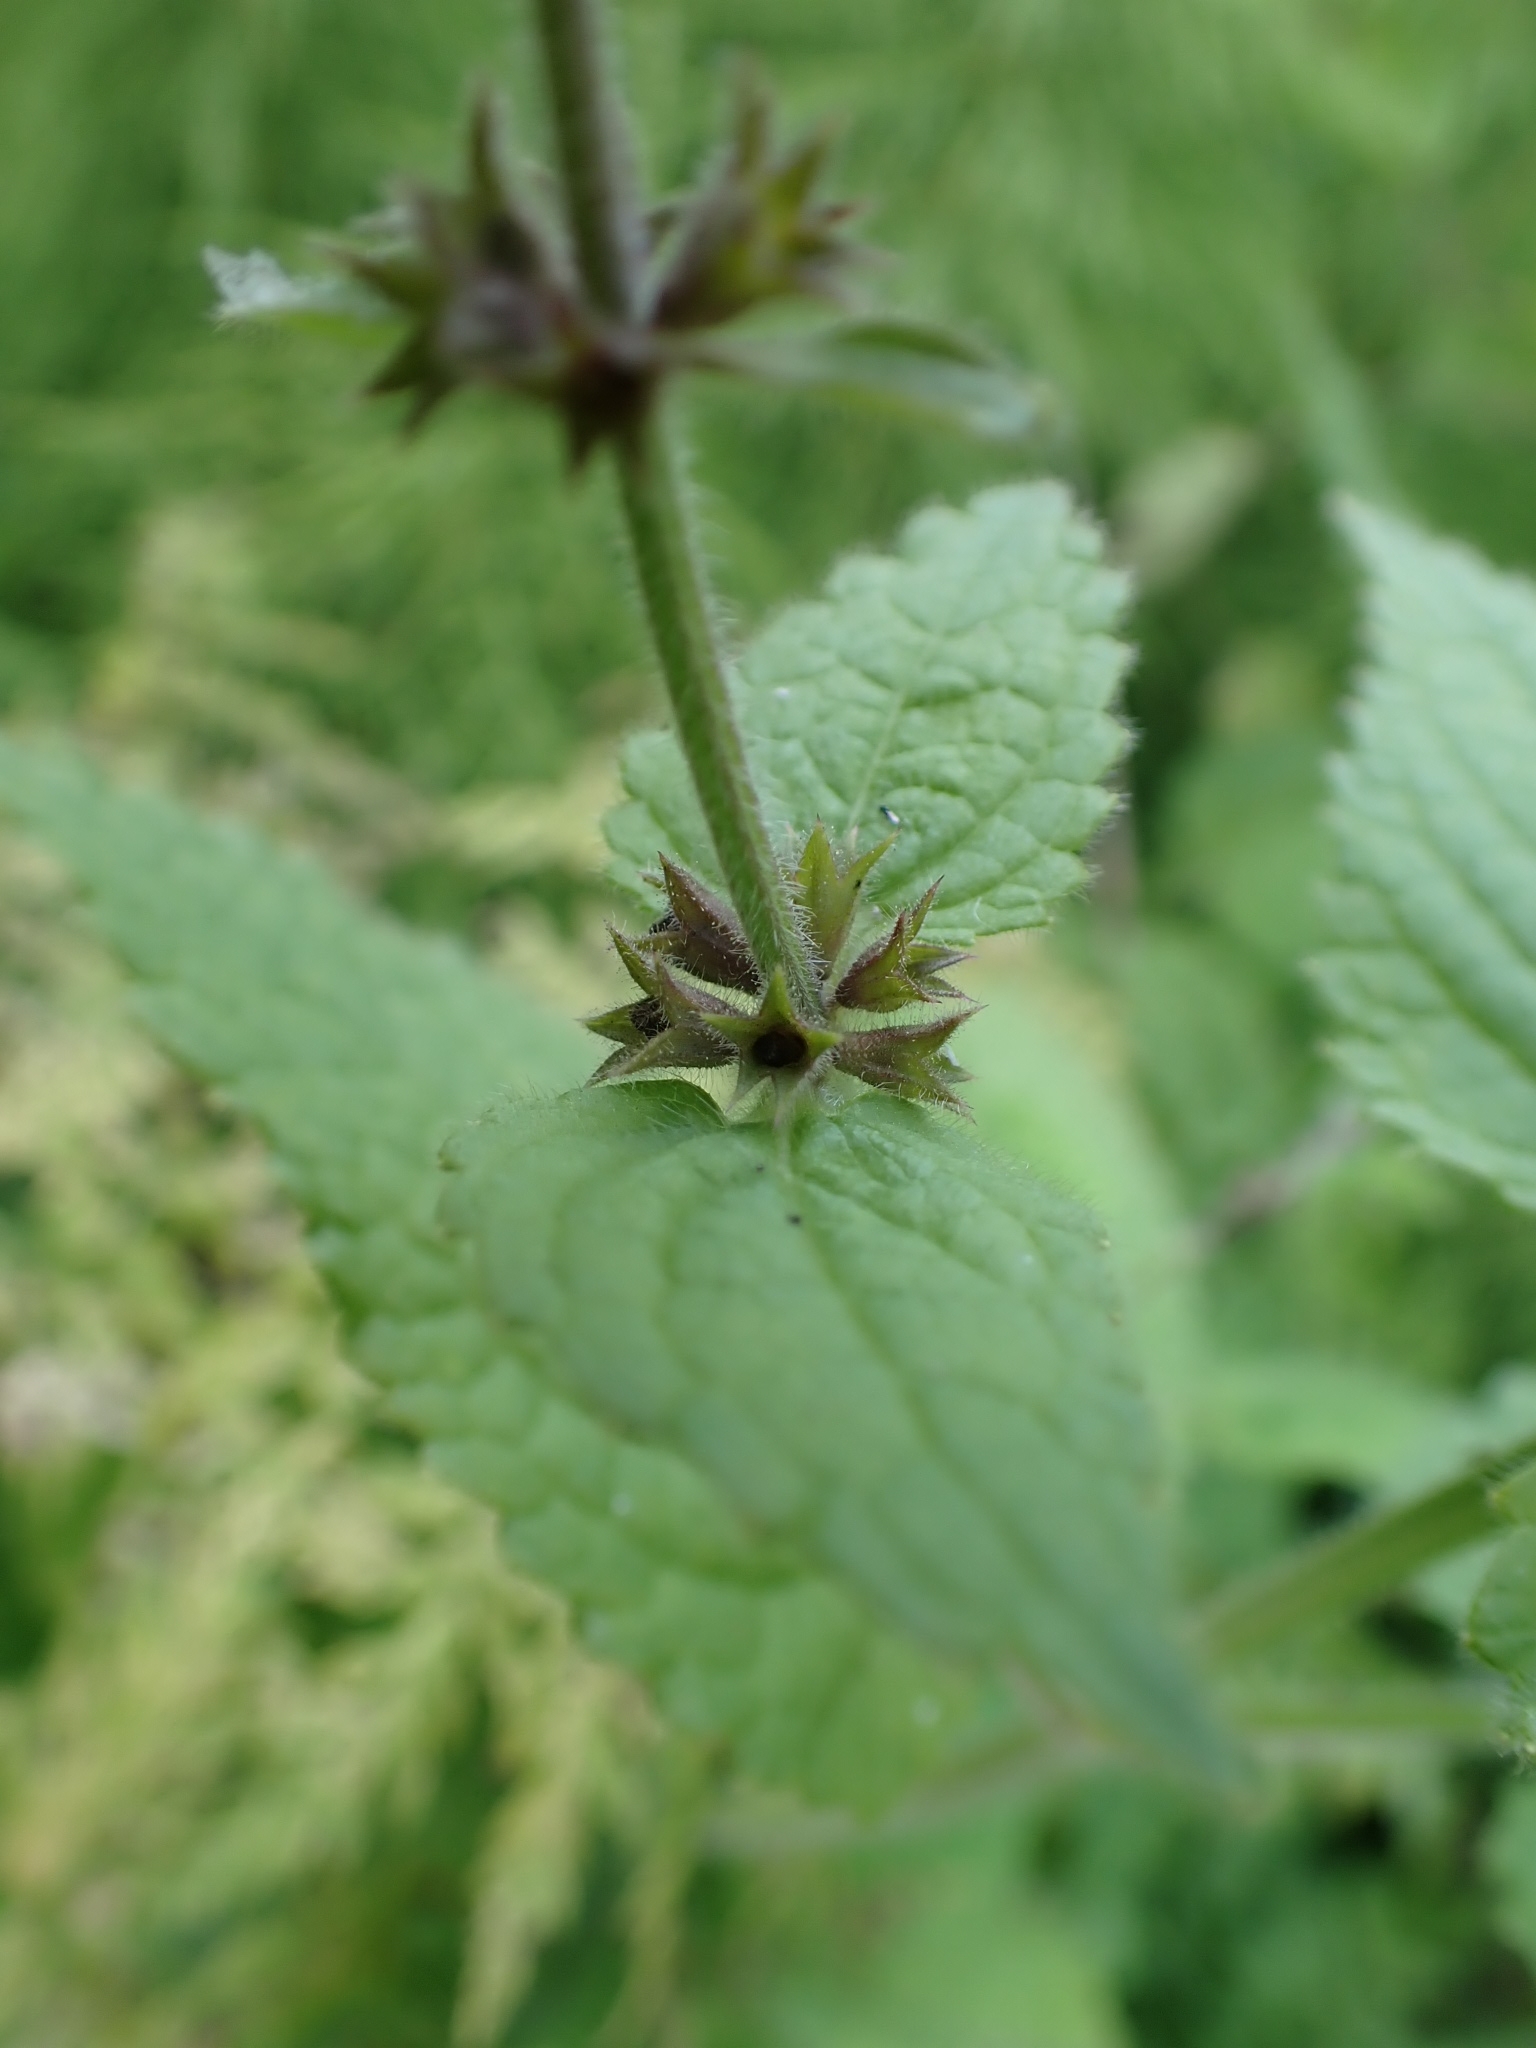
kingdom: Plantae
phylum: Tracheophyta
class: Magnoliopsida
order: Lamiales
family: Lamiaceae
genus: Stachys
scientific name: Stachys sylvatica
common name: Hedge woundwort
